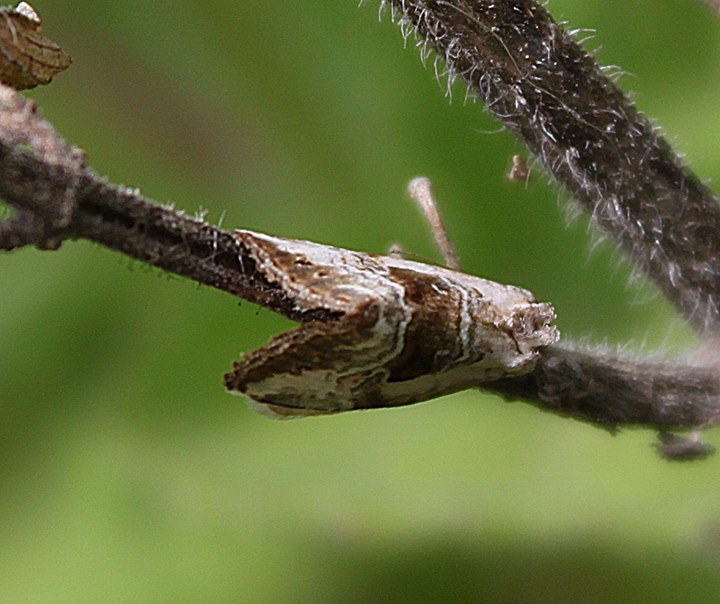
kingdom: Animalia
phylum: Arthropoda
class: Insecta
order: Lepidoptera
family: Noctuidae
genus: Elaphria
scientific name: Elaphria venustula
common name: Rosy marbled
